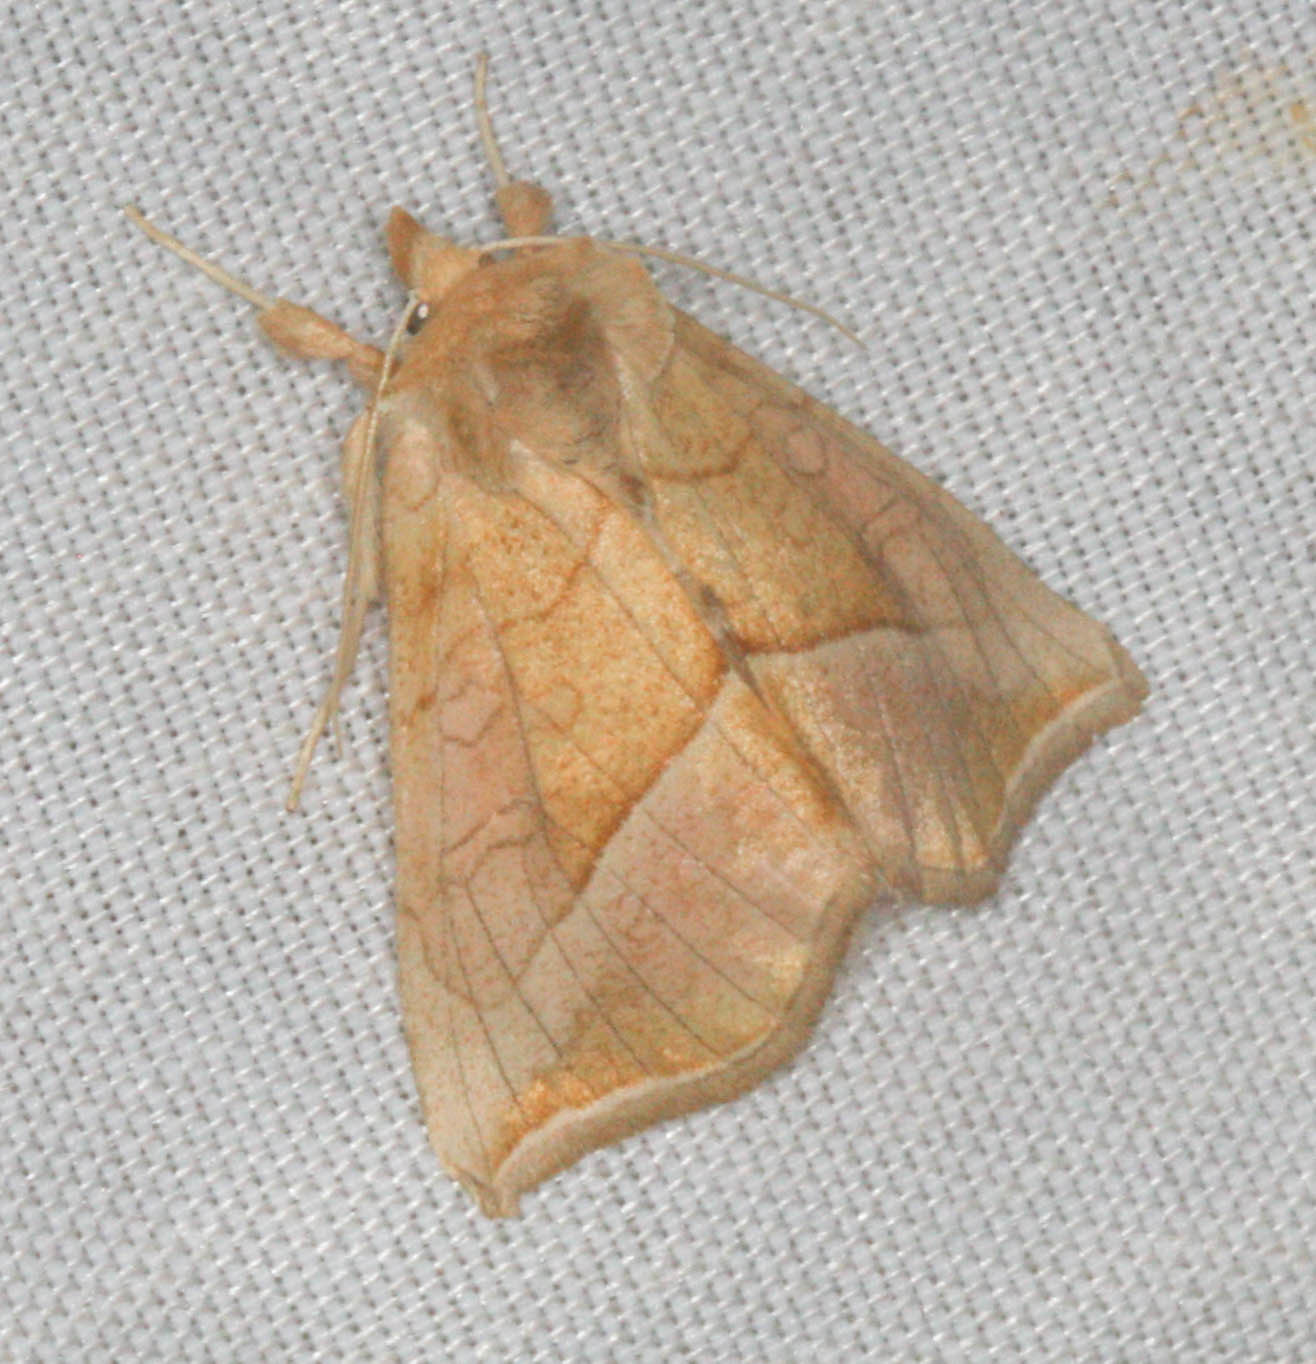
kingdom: Animalia
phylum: Arthropoda
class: Insecta
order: Lepidoptera
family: Noctuidae
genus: Pseudeva
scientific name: Pseudeva palligera
